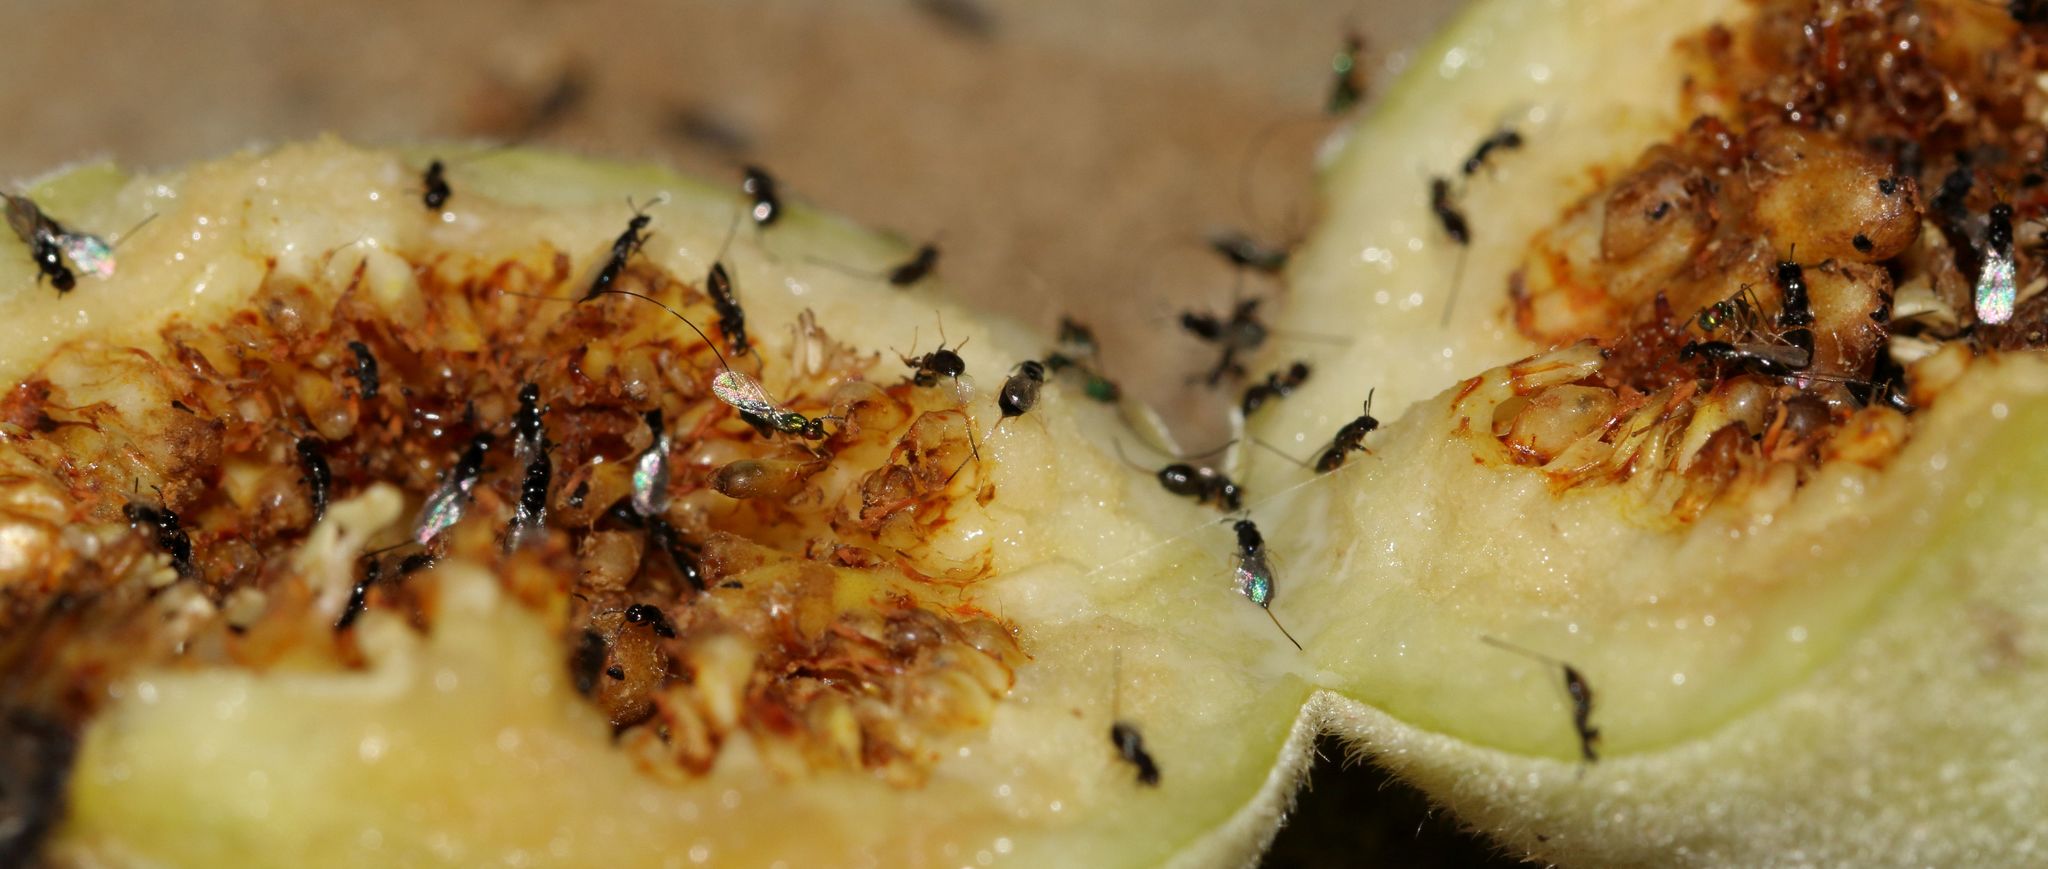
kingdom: Plantae
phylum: Tracheophyta
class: Magnoliopsida
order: Rosales
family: Moraceae
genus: Ficus
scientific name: Ficus sycomorus
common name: Sycomore
